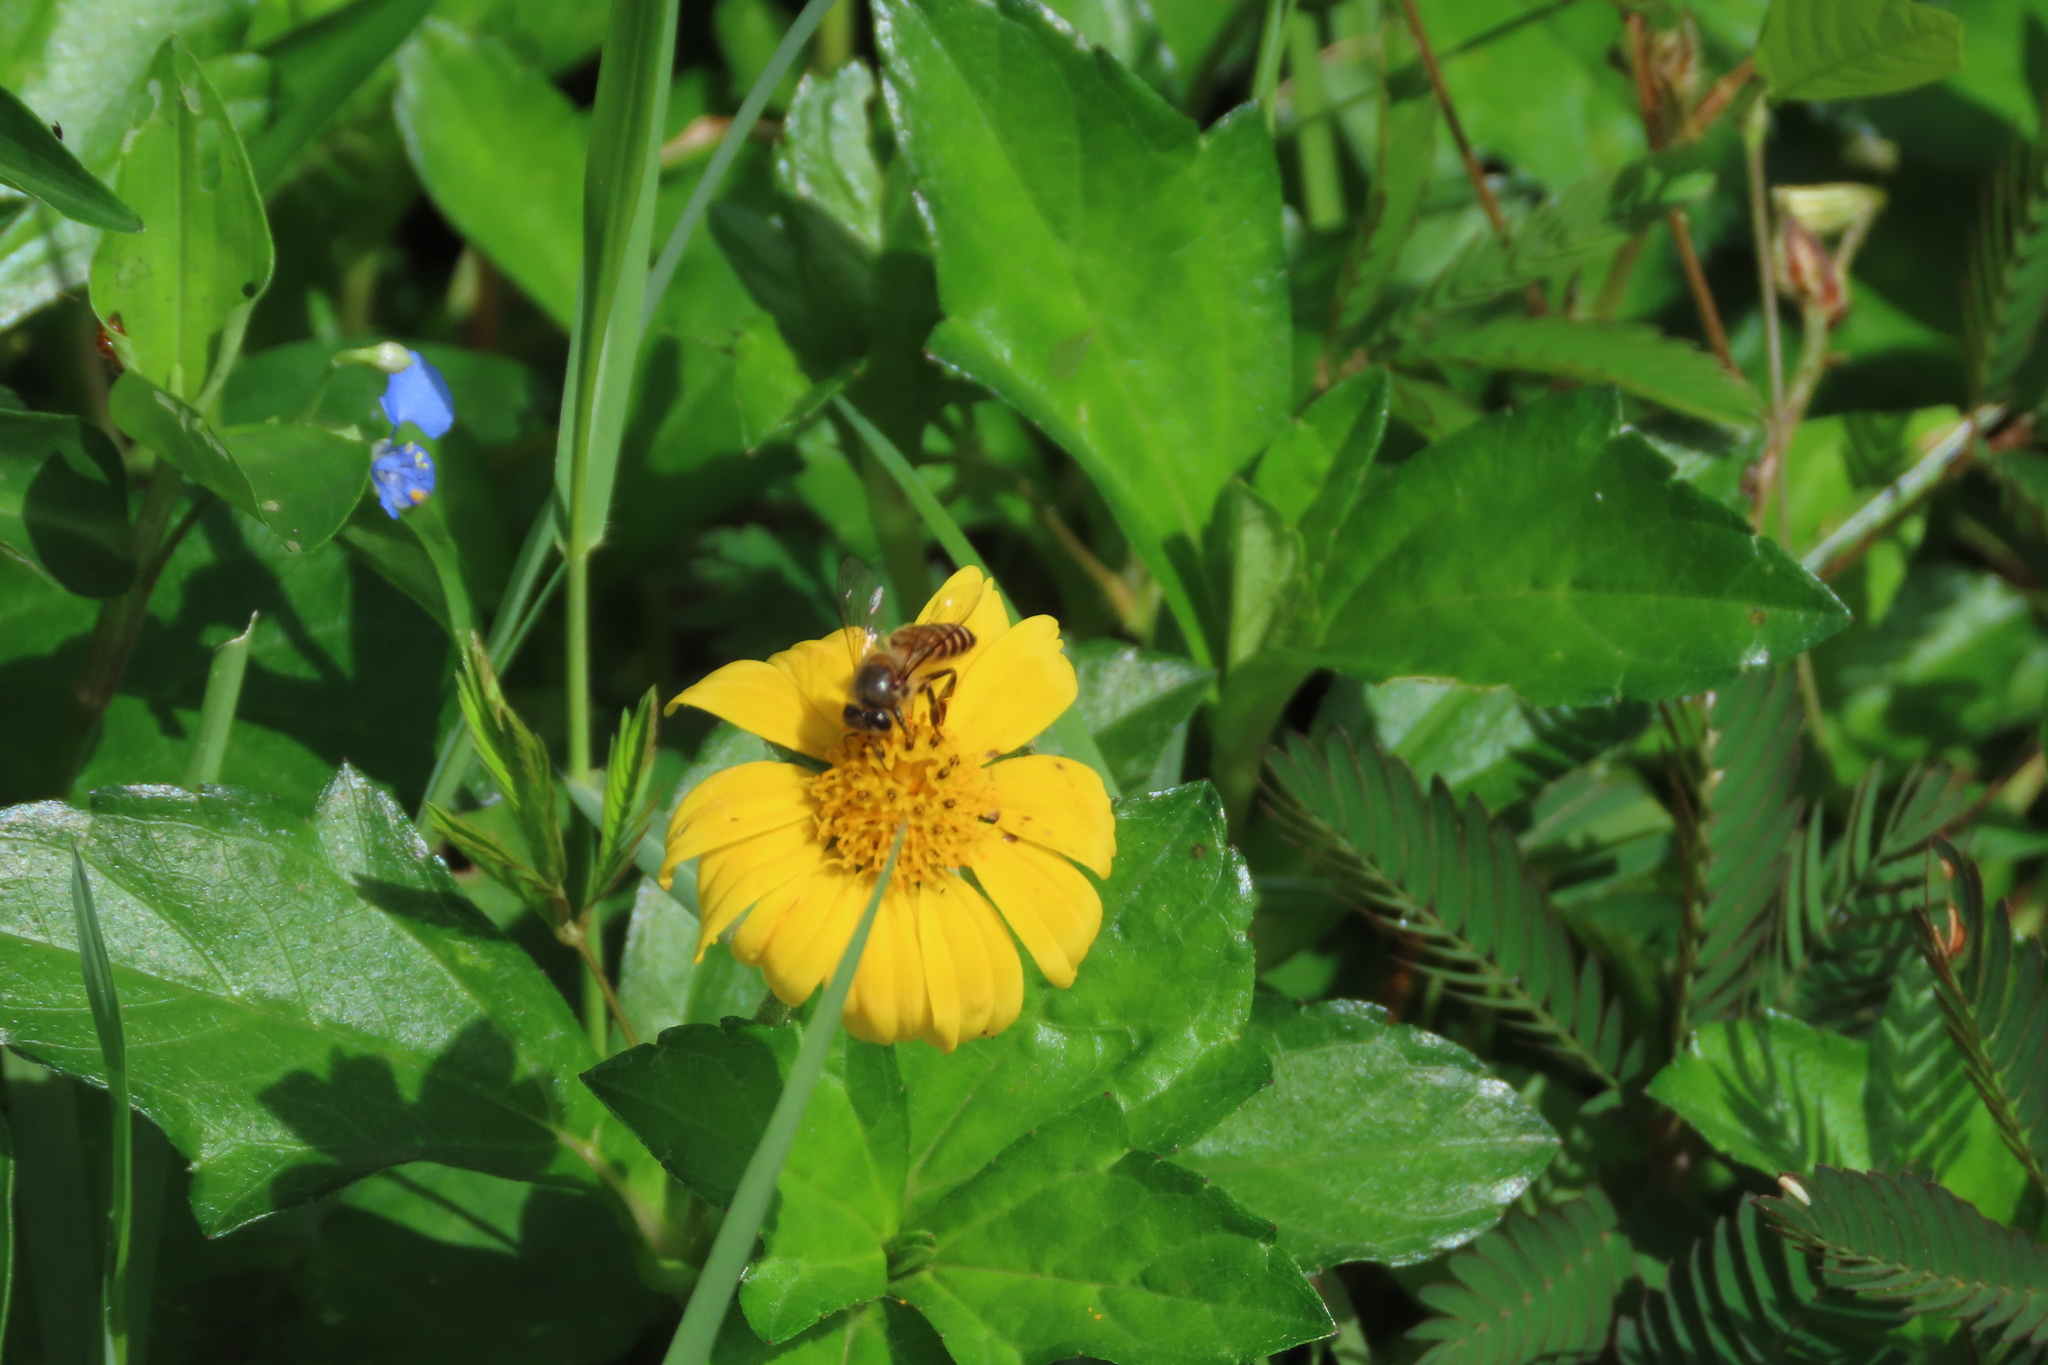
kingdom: Animalia
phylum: Arthropoda
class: Insecta
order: Hymenoptera
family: Apidae
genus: Apis
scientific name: Apis cerana
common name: Honey bee
